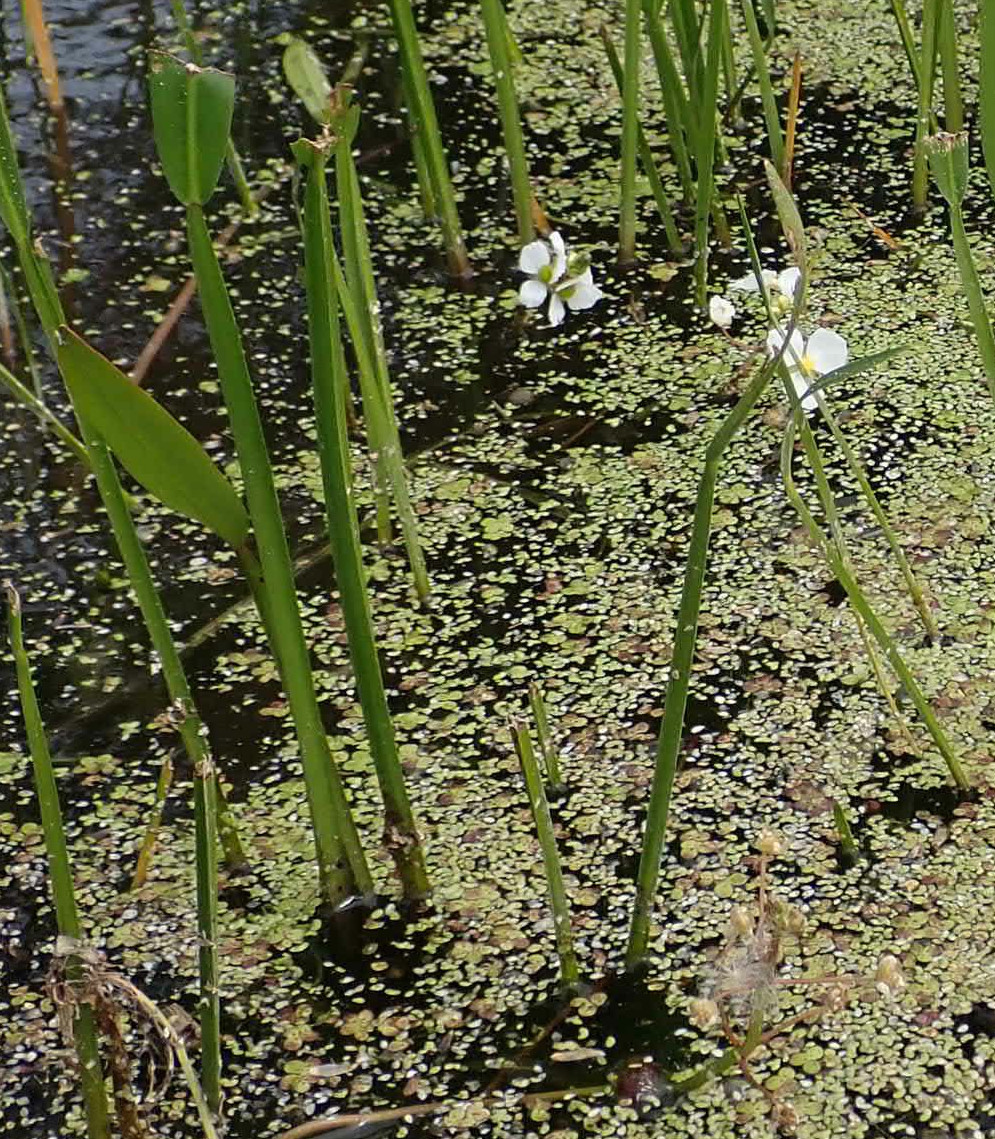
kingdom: Plantae
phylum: Tracheophyta
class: Liliopsida
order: Alismatales
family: Alismataceae
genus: Sagittaria
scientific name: Sagittaria rigida
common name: Canadian arrowhead
